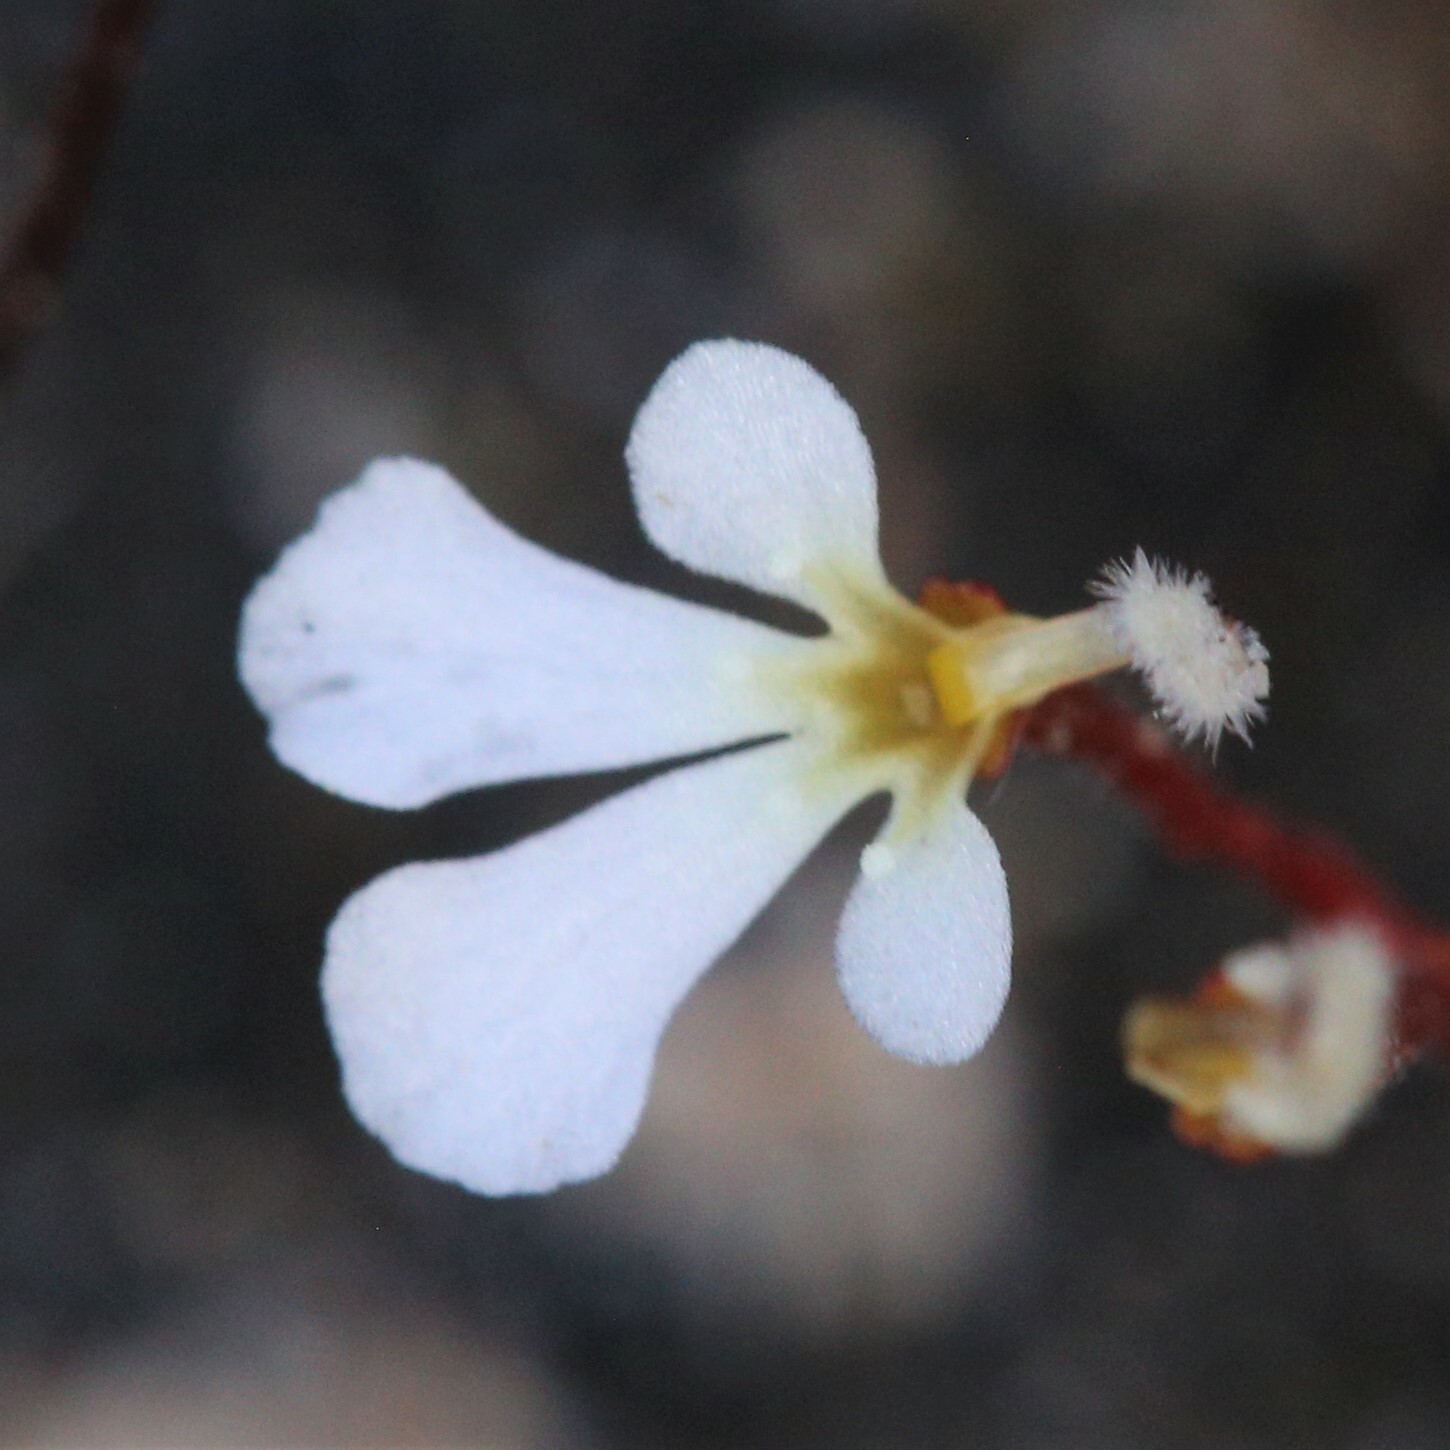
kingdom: Plantae
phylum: Tracheophyta
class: Magnoliopsida
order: Asterales
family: Stylidiaceae
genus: Stylidium
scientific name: Stylidium rhipidium
